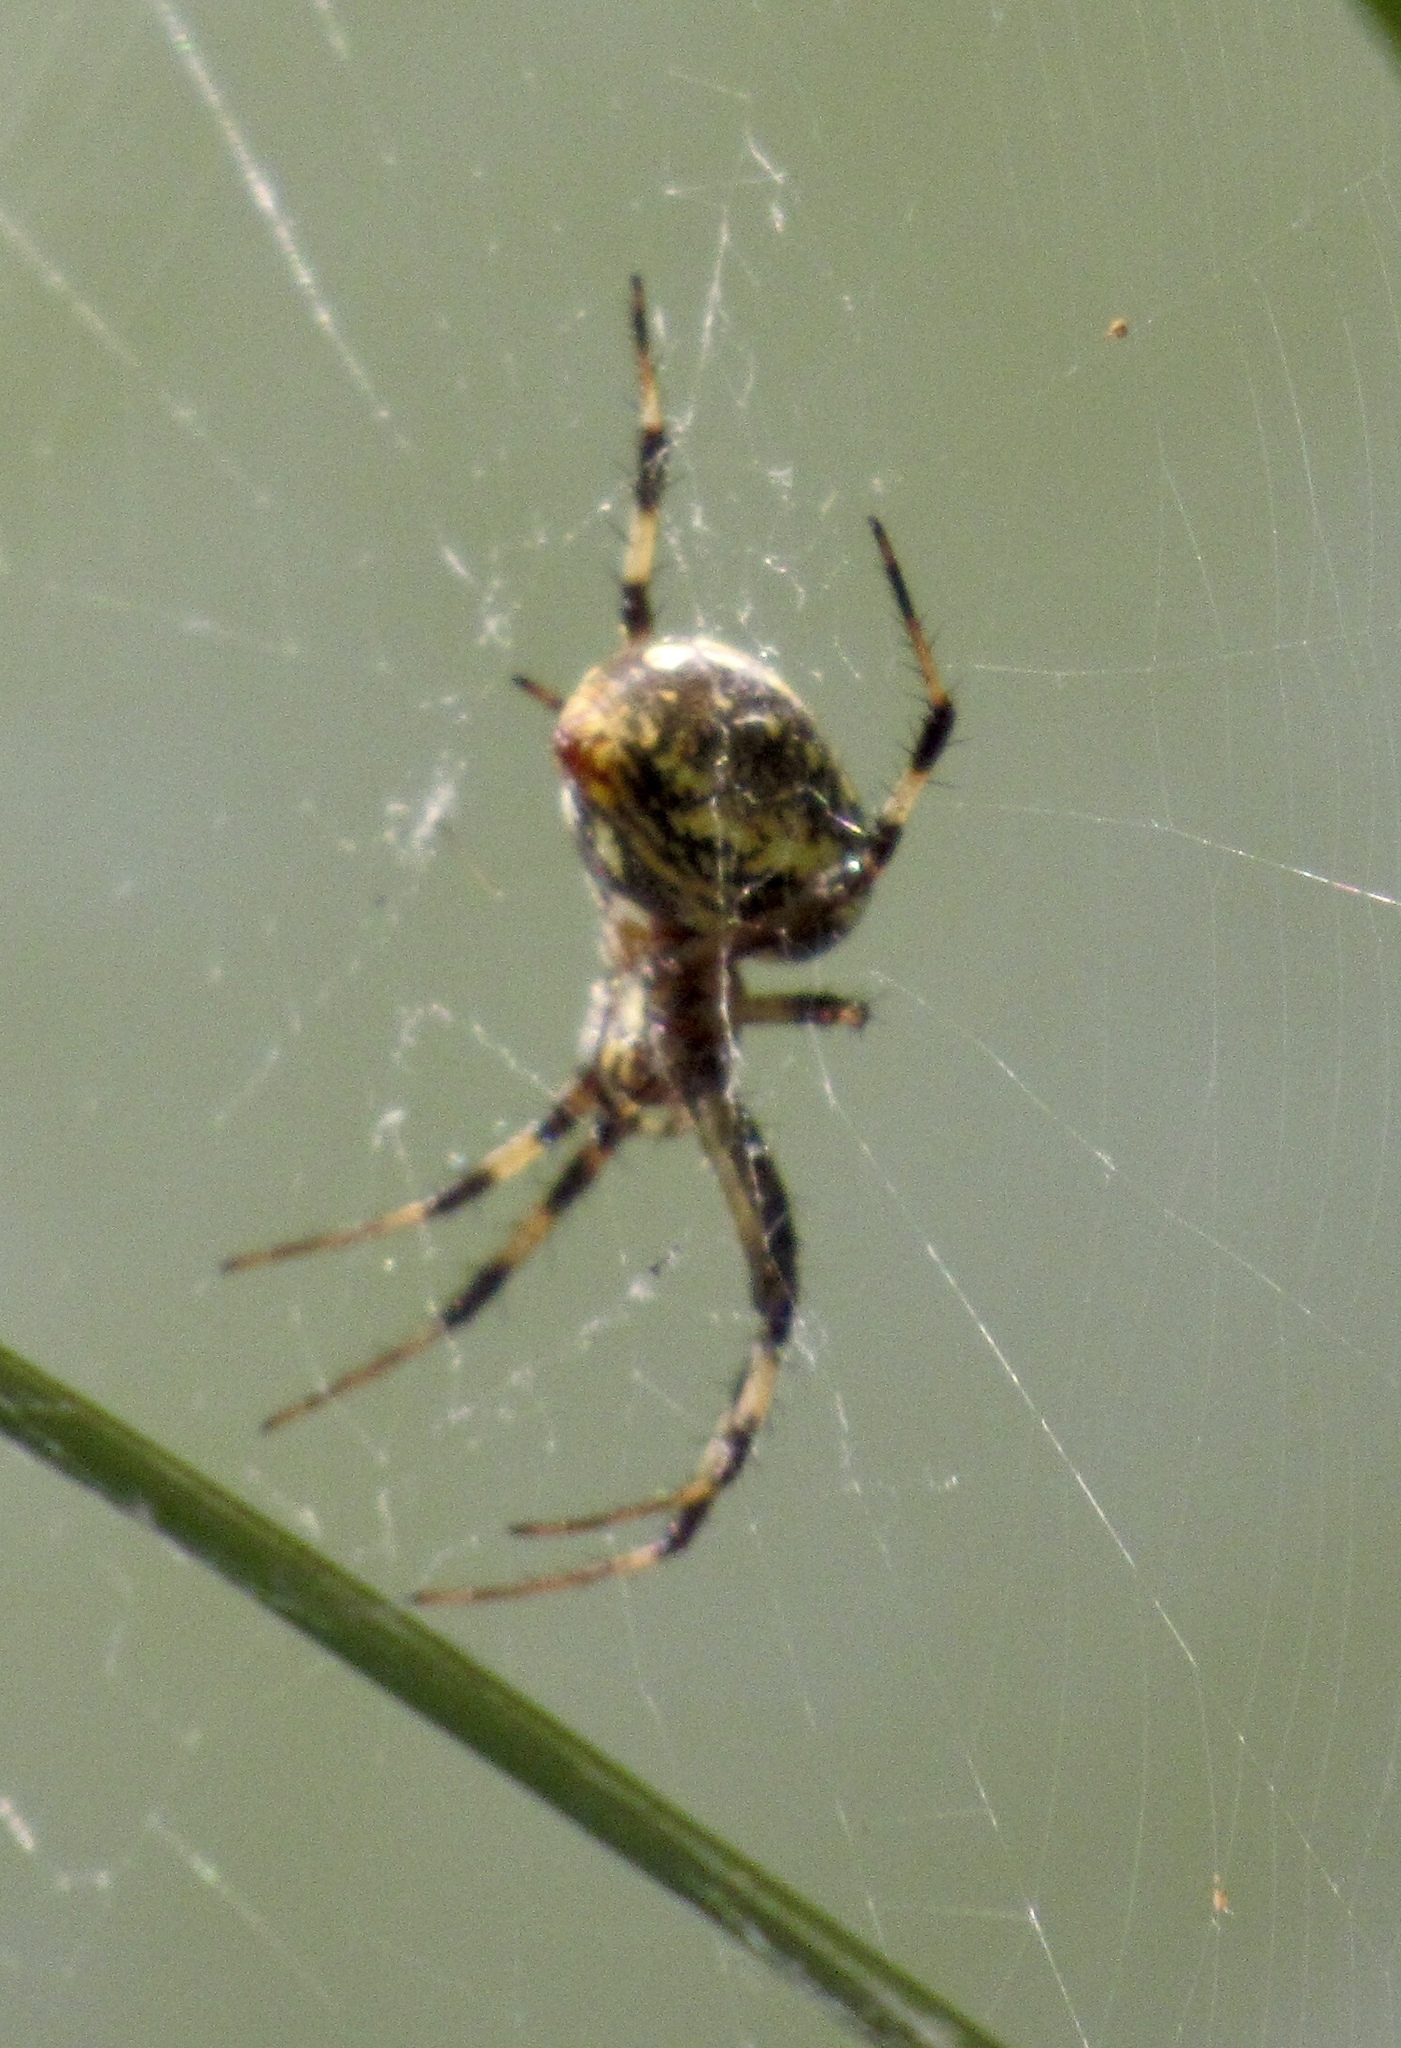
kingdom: Animalia
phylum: Arthropoda
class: Arachnida
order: Araneae
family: Araneidae
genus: Neoscona
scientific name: Neoscona oaxacensis
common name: Orb weavers
